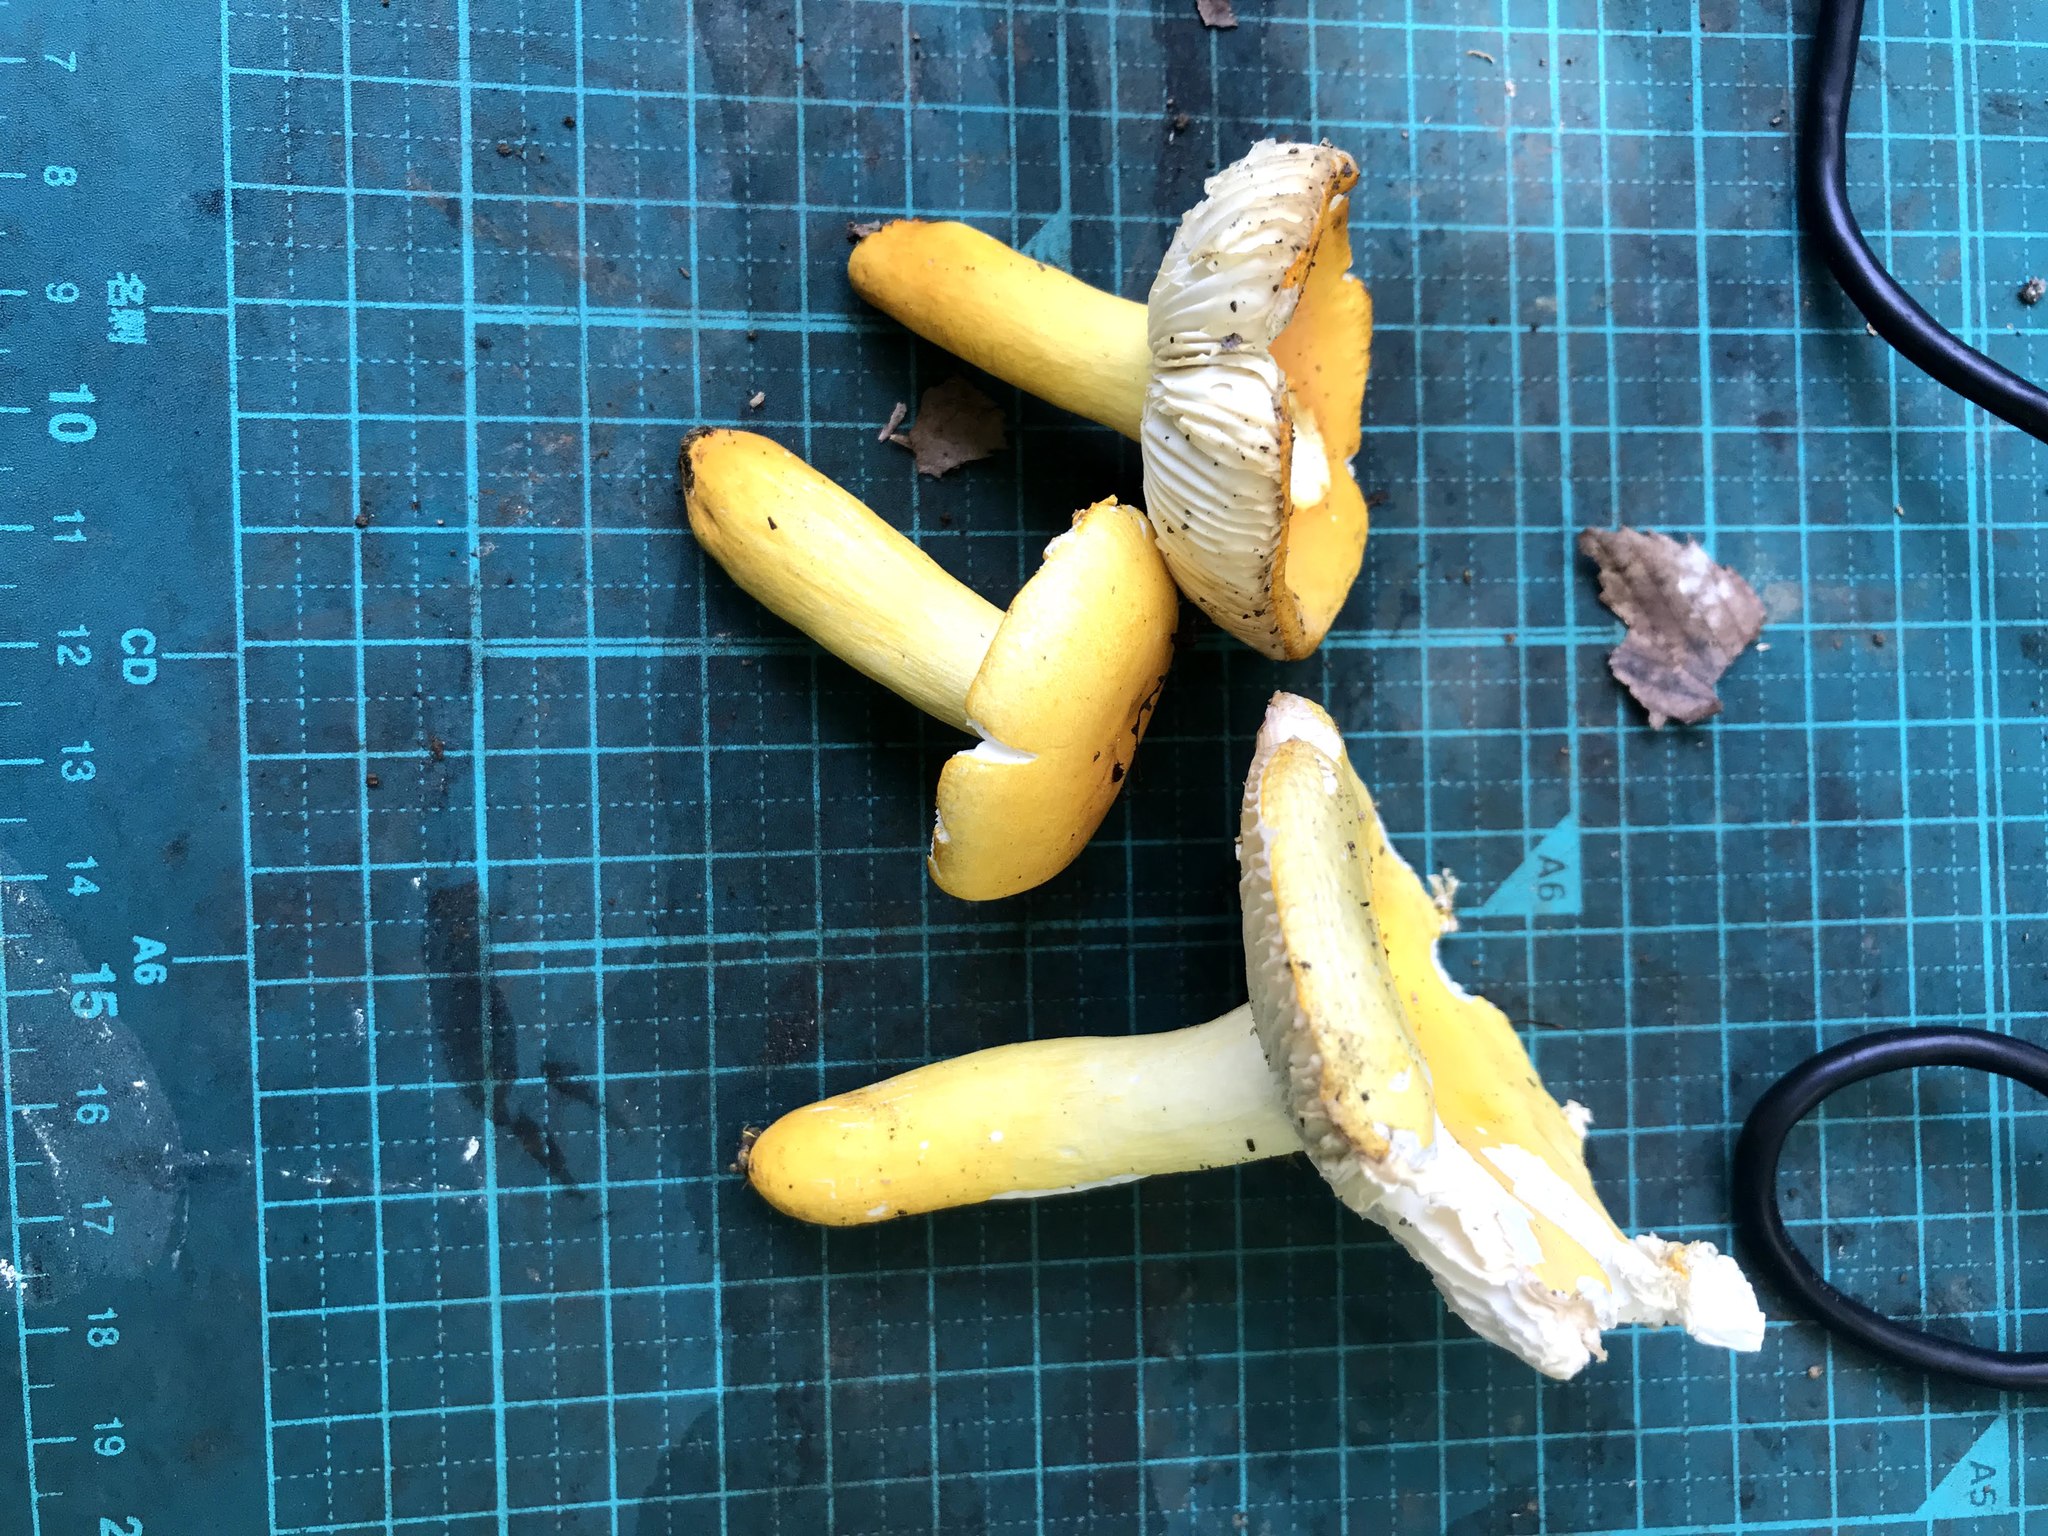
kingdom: Fungi
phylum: Basidiomycota
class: Agaricomycetes
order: Russulales
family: Russulaceae
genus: Russula
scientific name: Russula flavida
